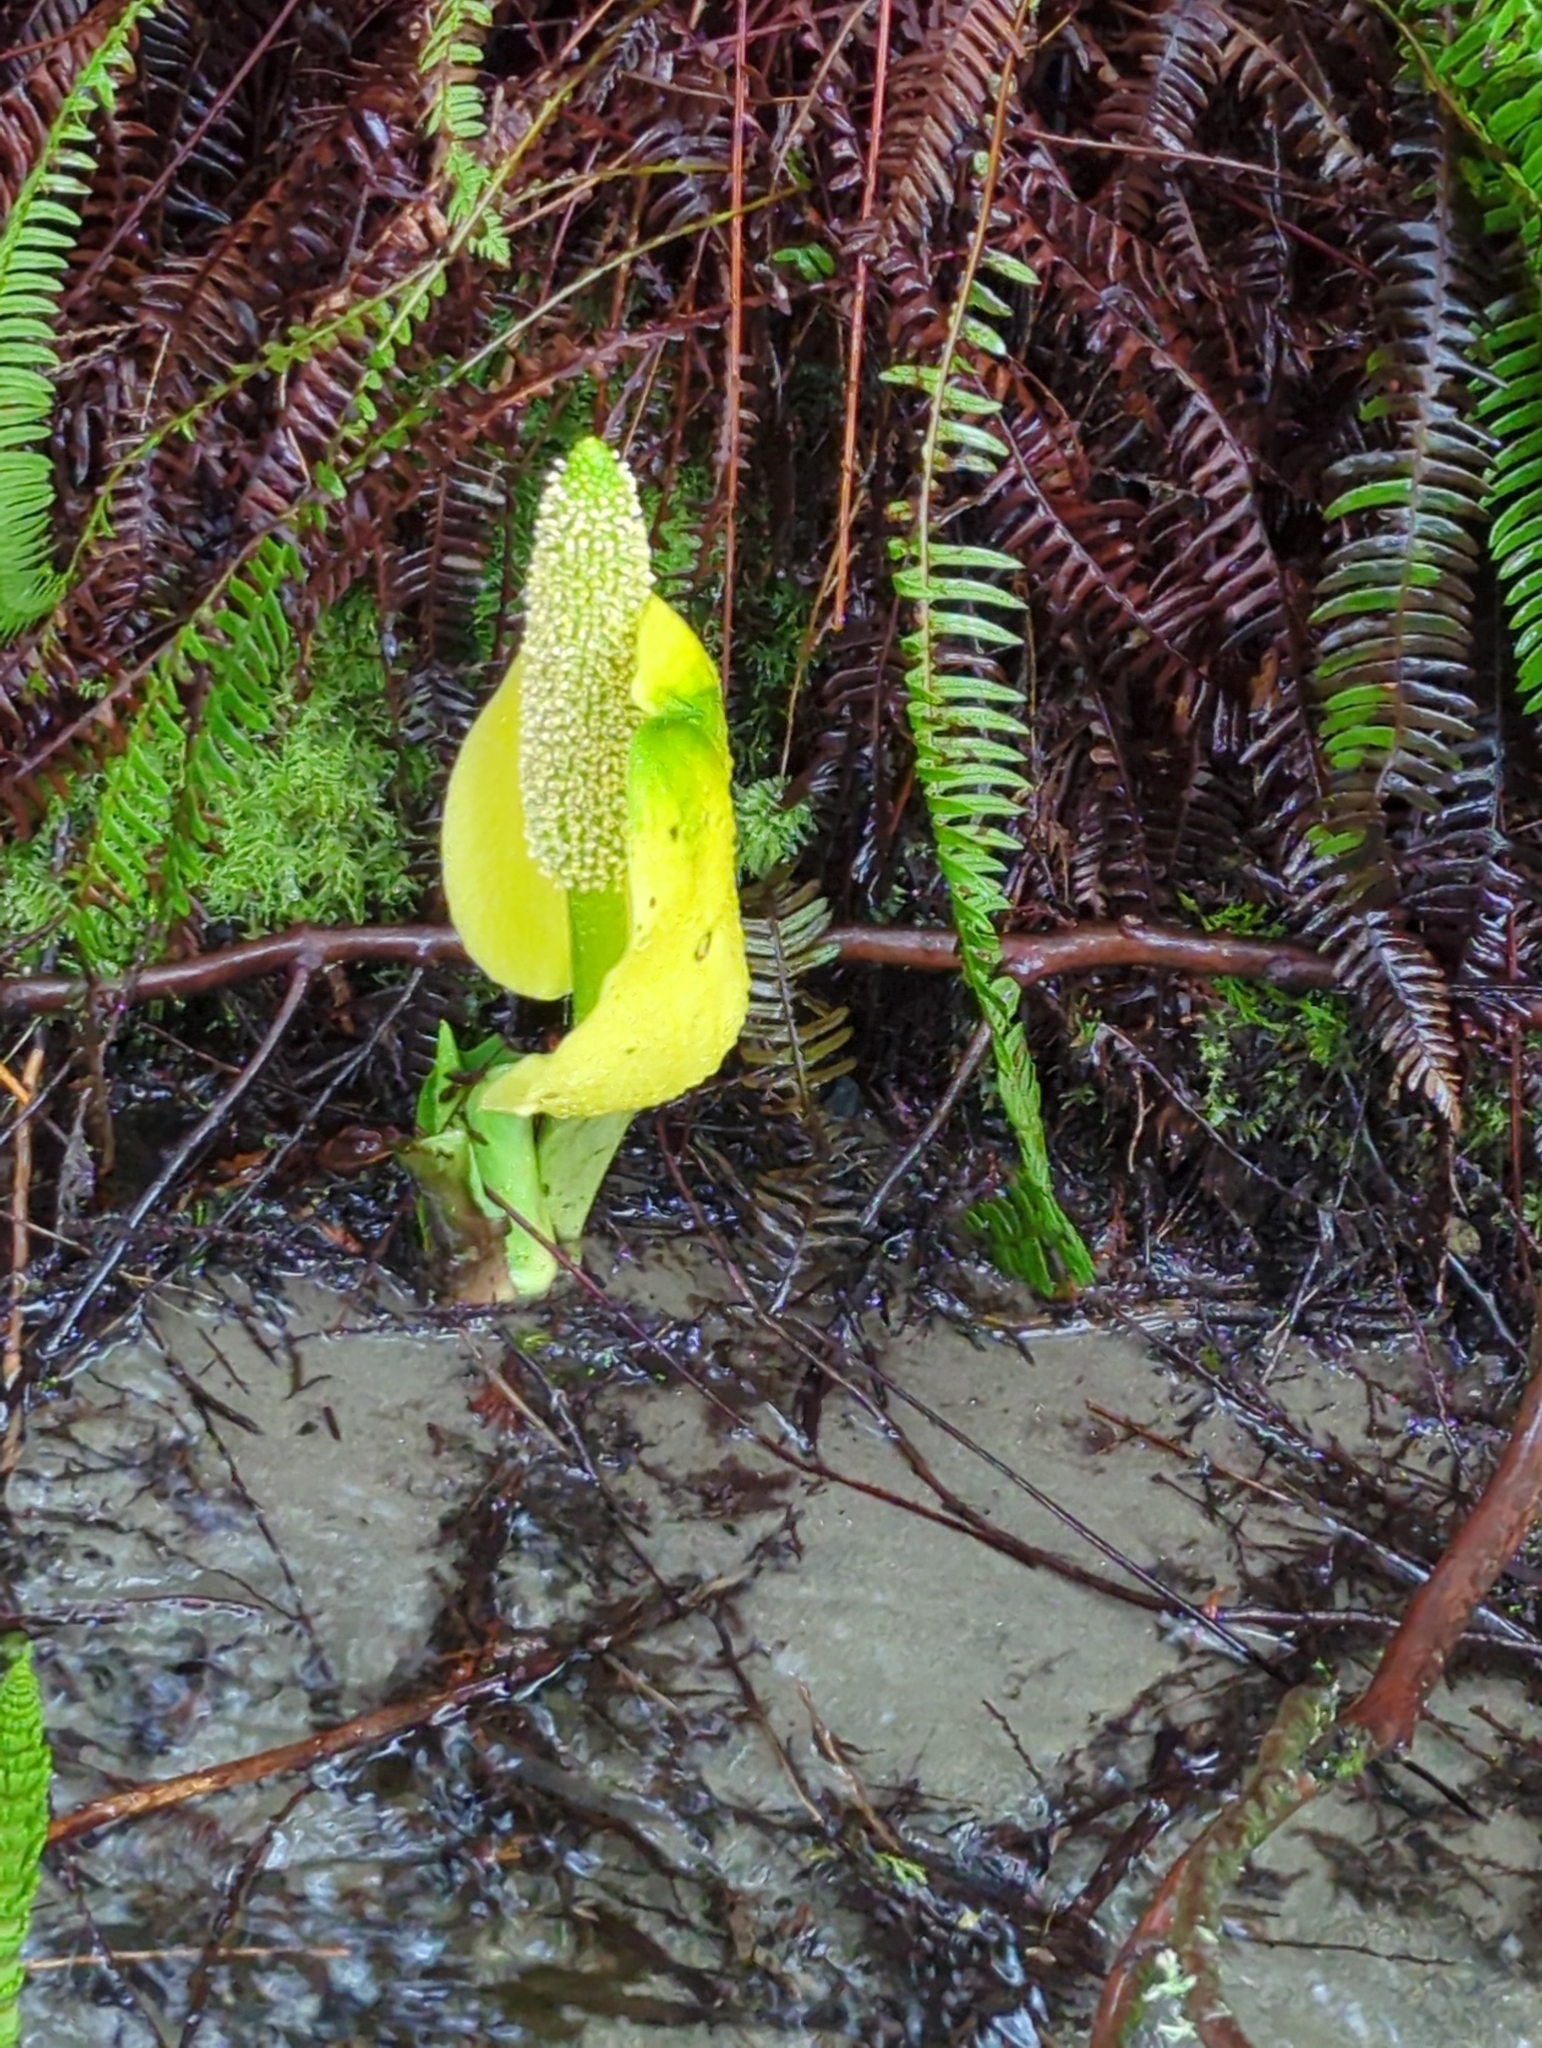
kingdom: Plantae
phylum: Tracheophyta
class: Liliopsida
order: Alismatales
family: Araceae
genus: Lysichiton
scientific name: Lysichiton americanus
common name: American skunk cabbage
